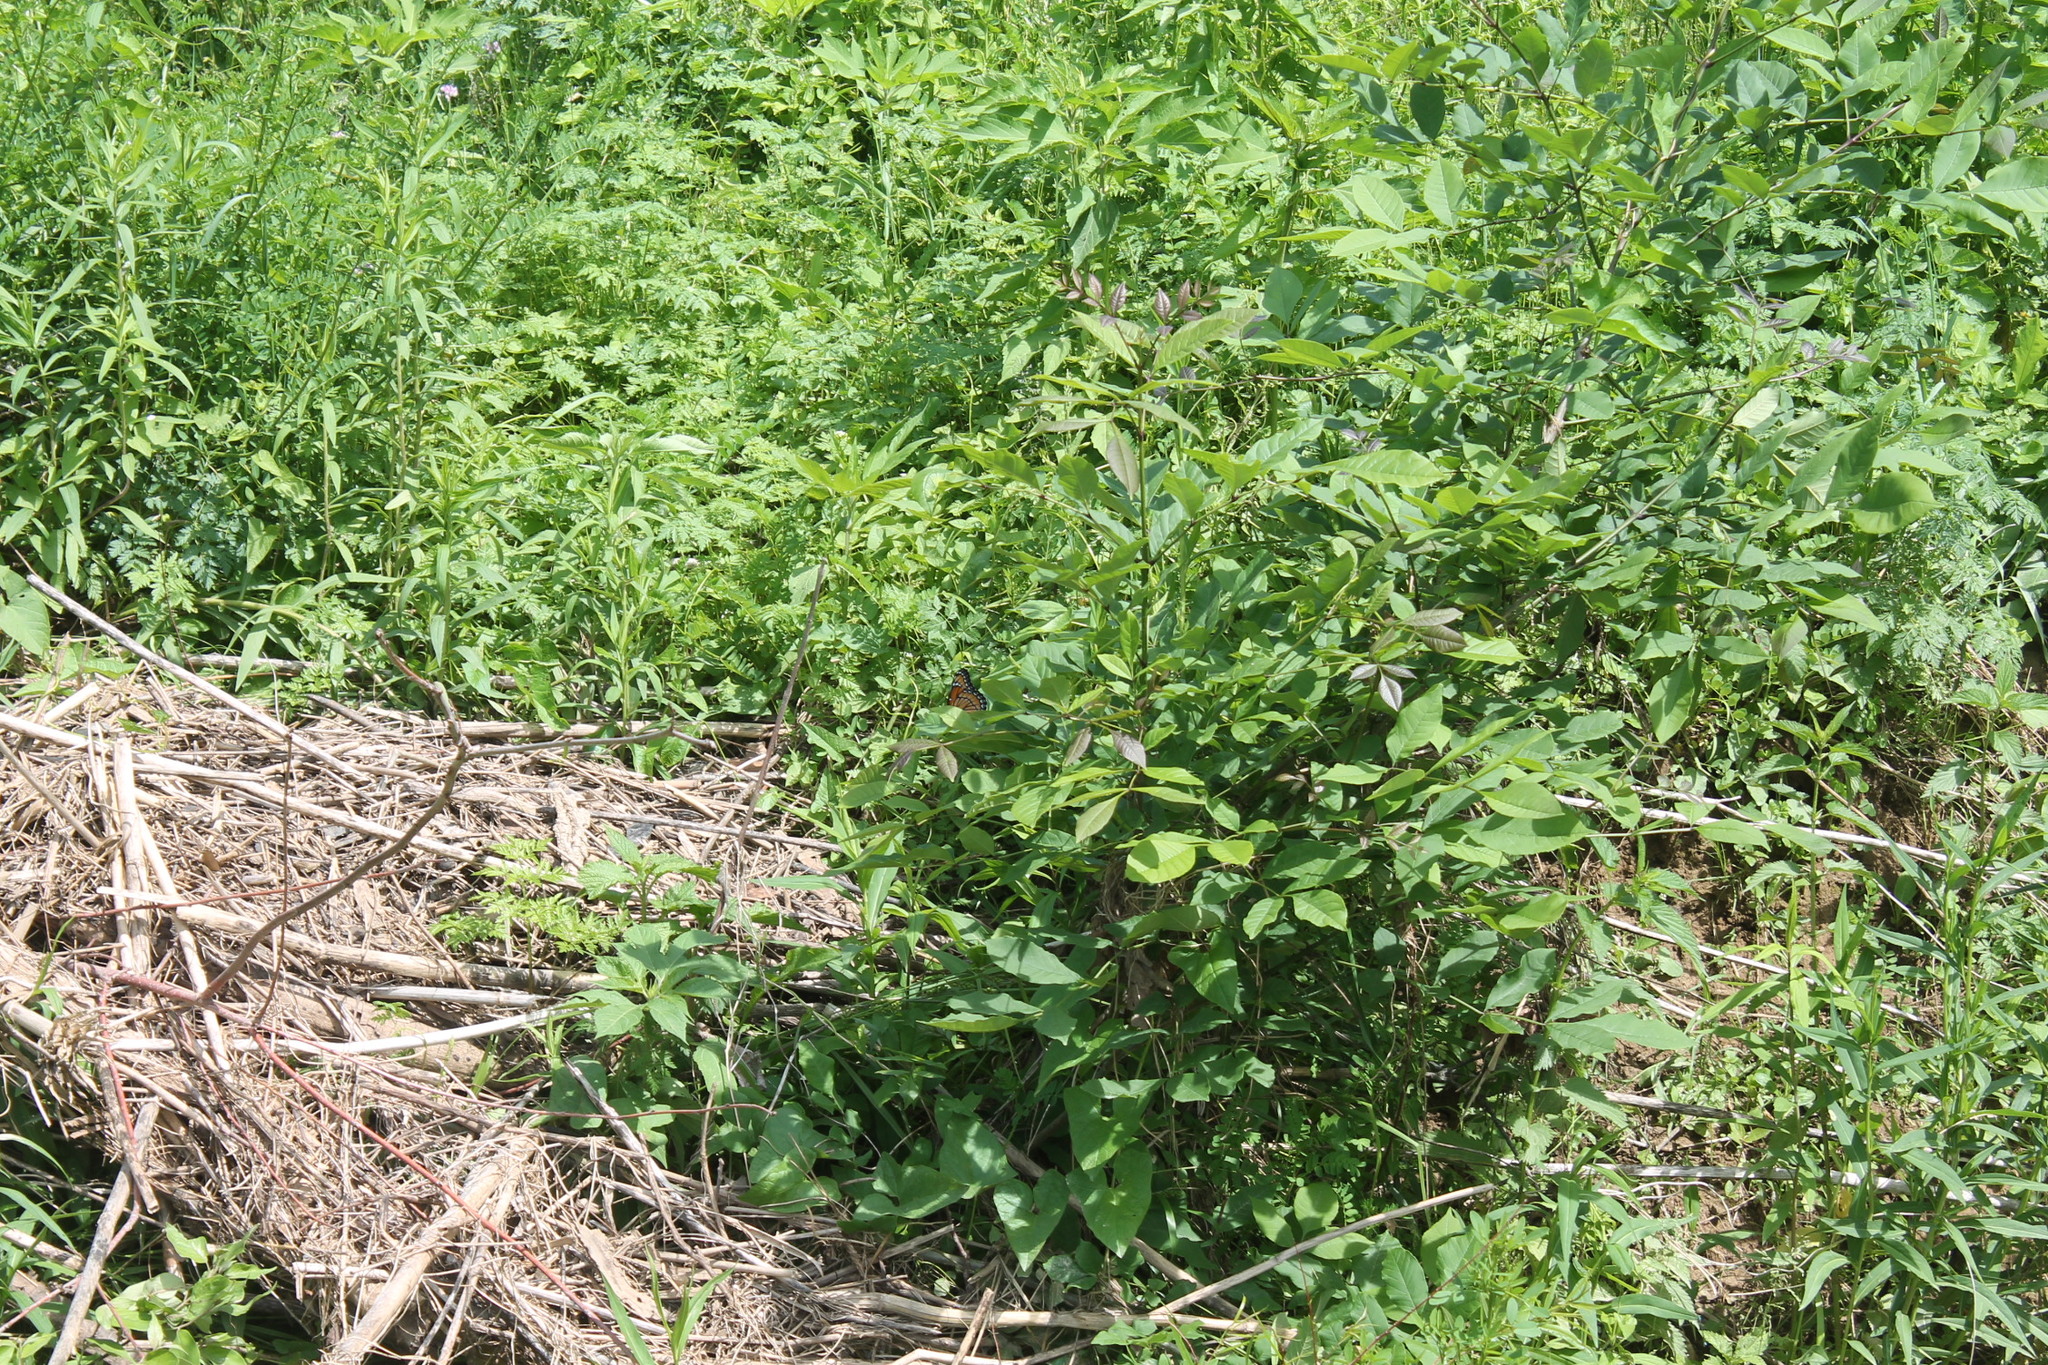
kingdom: Animalia
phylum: Arthropoda
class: Insecta
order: Lepidoptera
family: Nymphalidae
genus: Limenitis
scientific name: Limenitis archippus
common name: Viceroy
